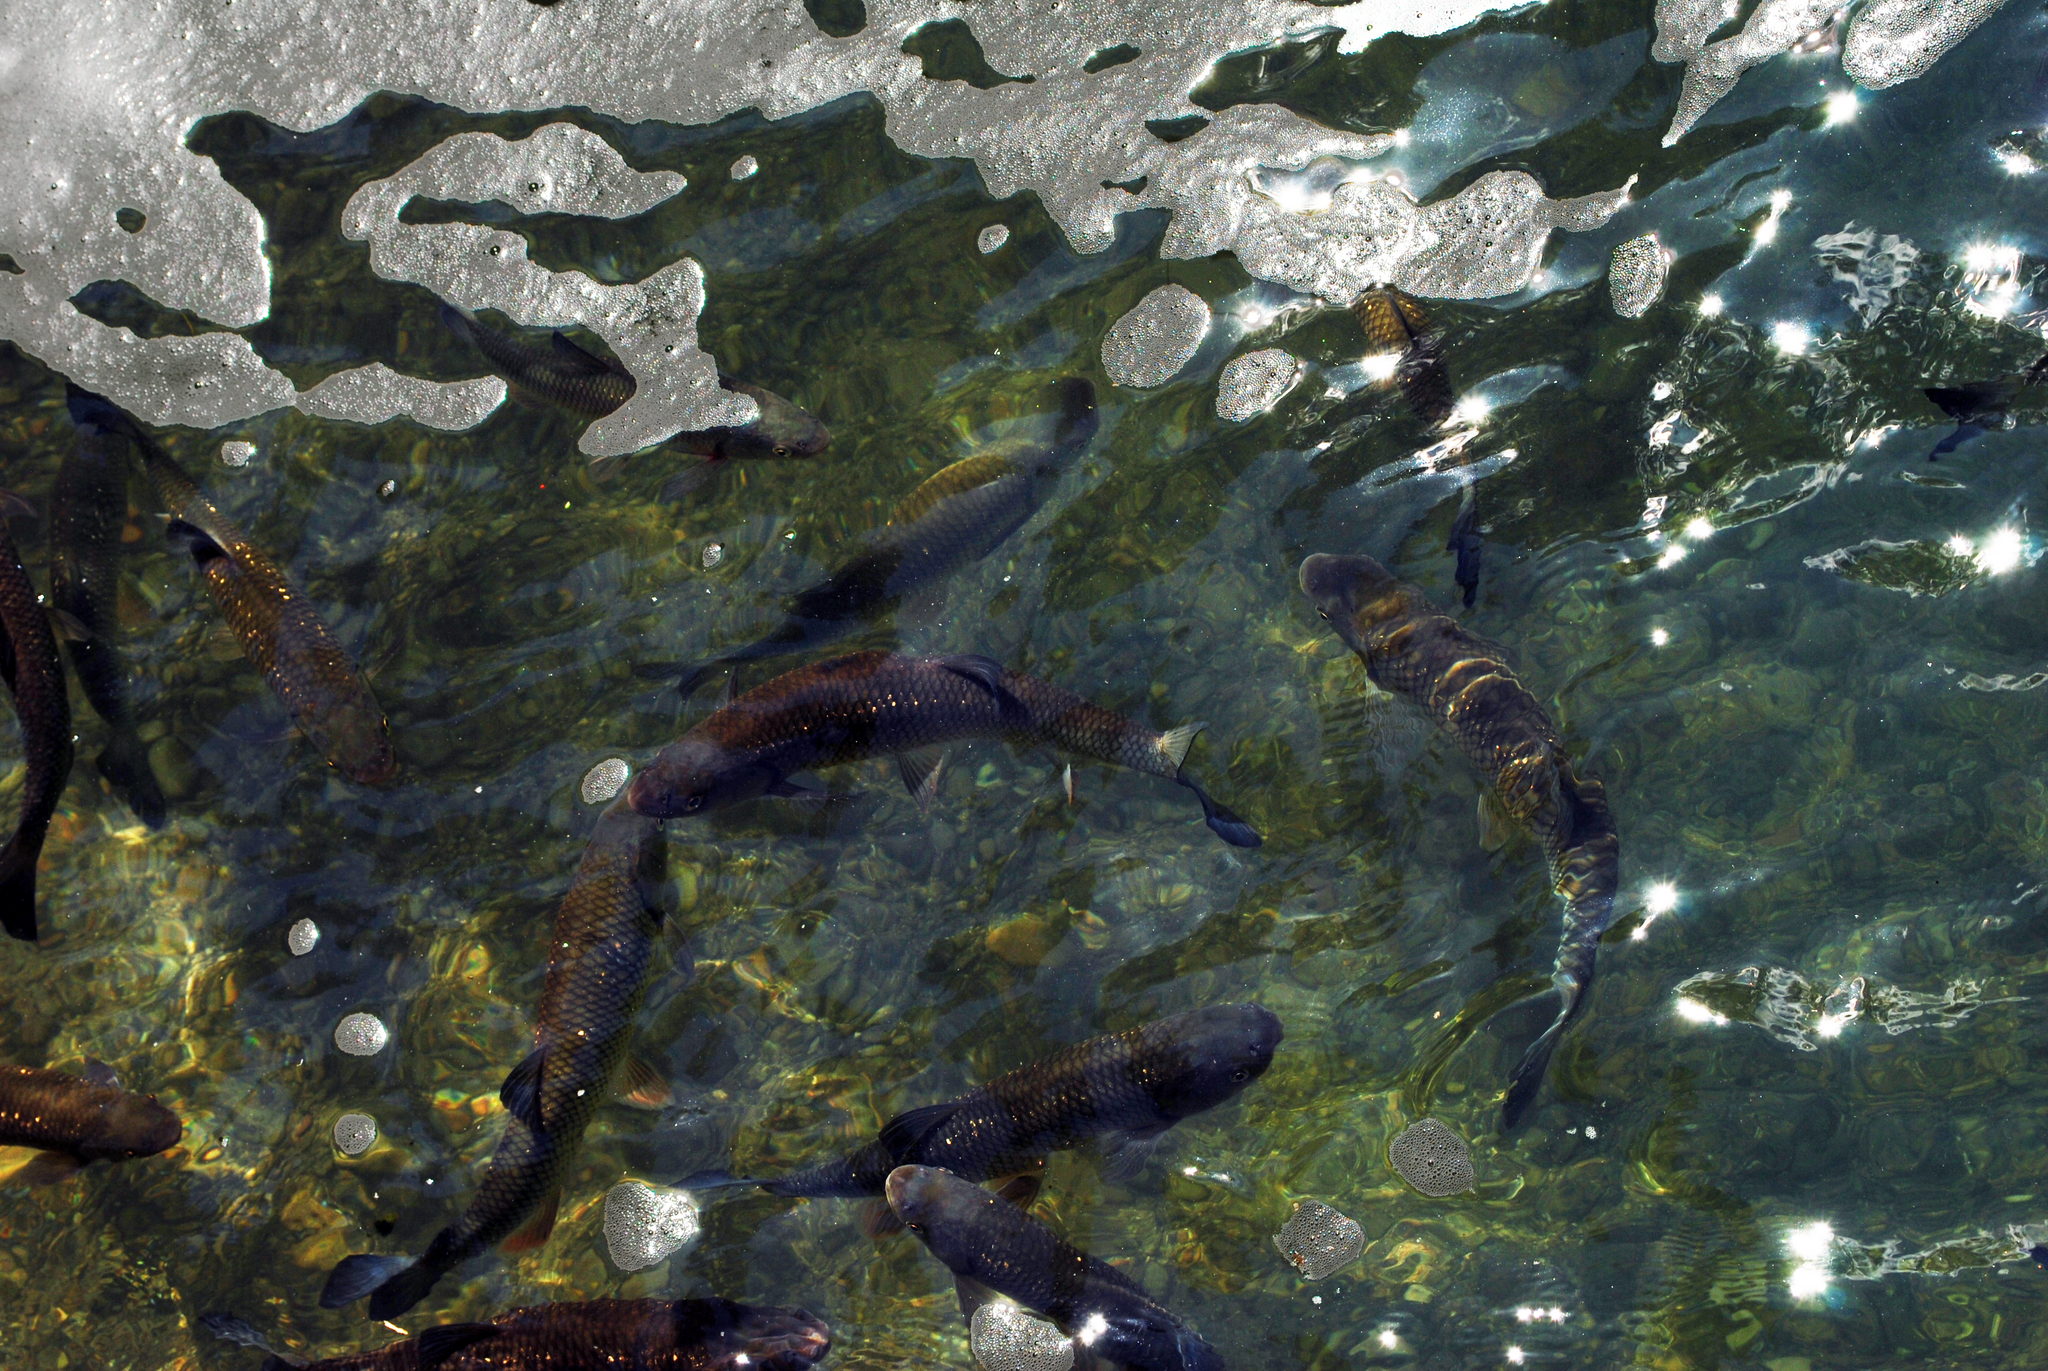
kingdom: Animalia
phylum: Chordata
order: Cypriniformes
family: Cyprinidae
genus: Squalius
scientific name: Squalius cephalus
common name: Chub
